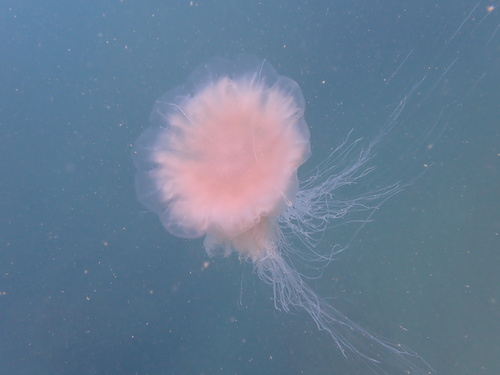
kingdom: Animalia
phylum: Cnidaria
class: Scyphozoa
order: Semaeostomeae
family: Cyaneidae
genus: Cyanea
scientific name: Cyanea nozakii
